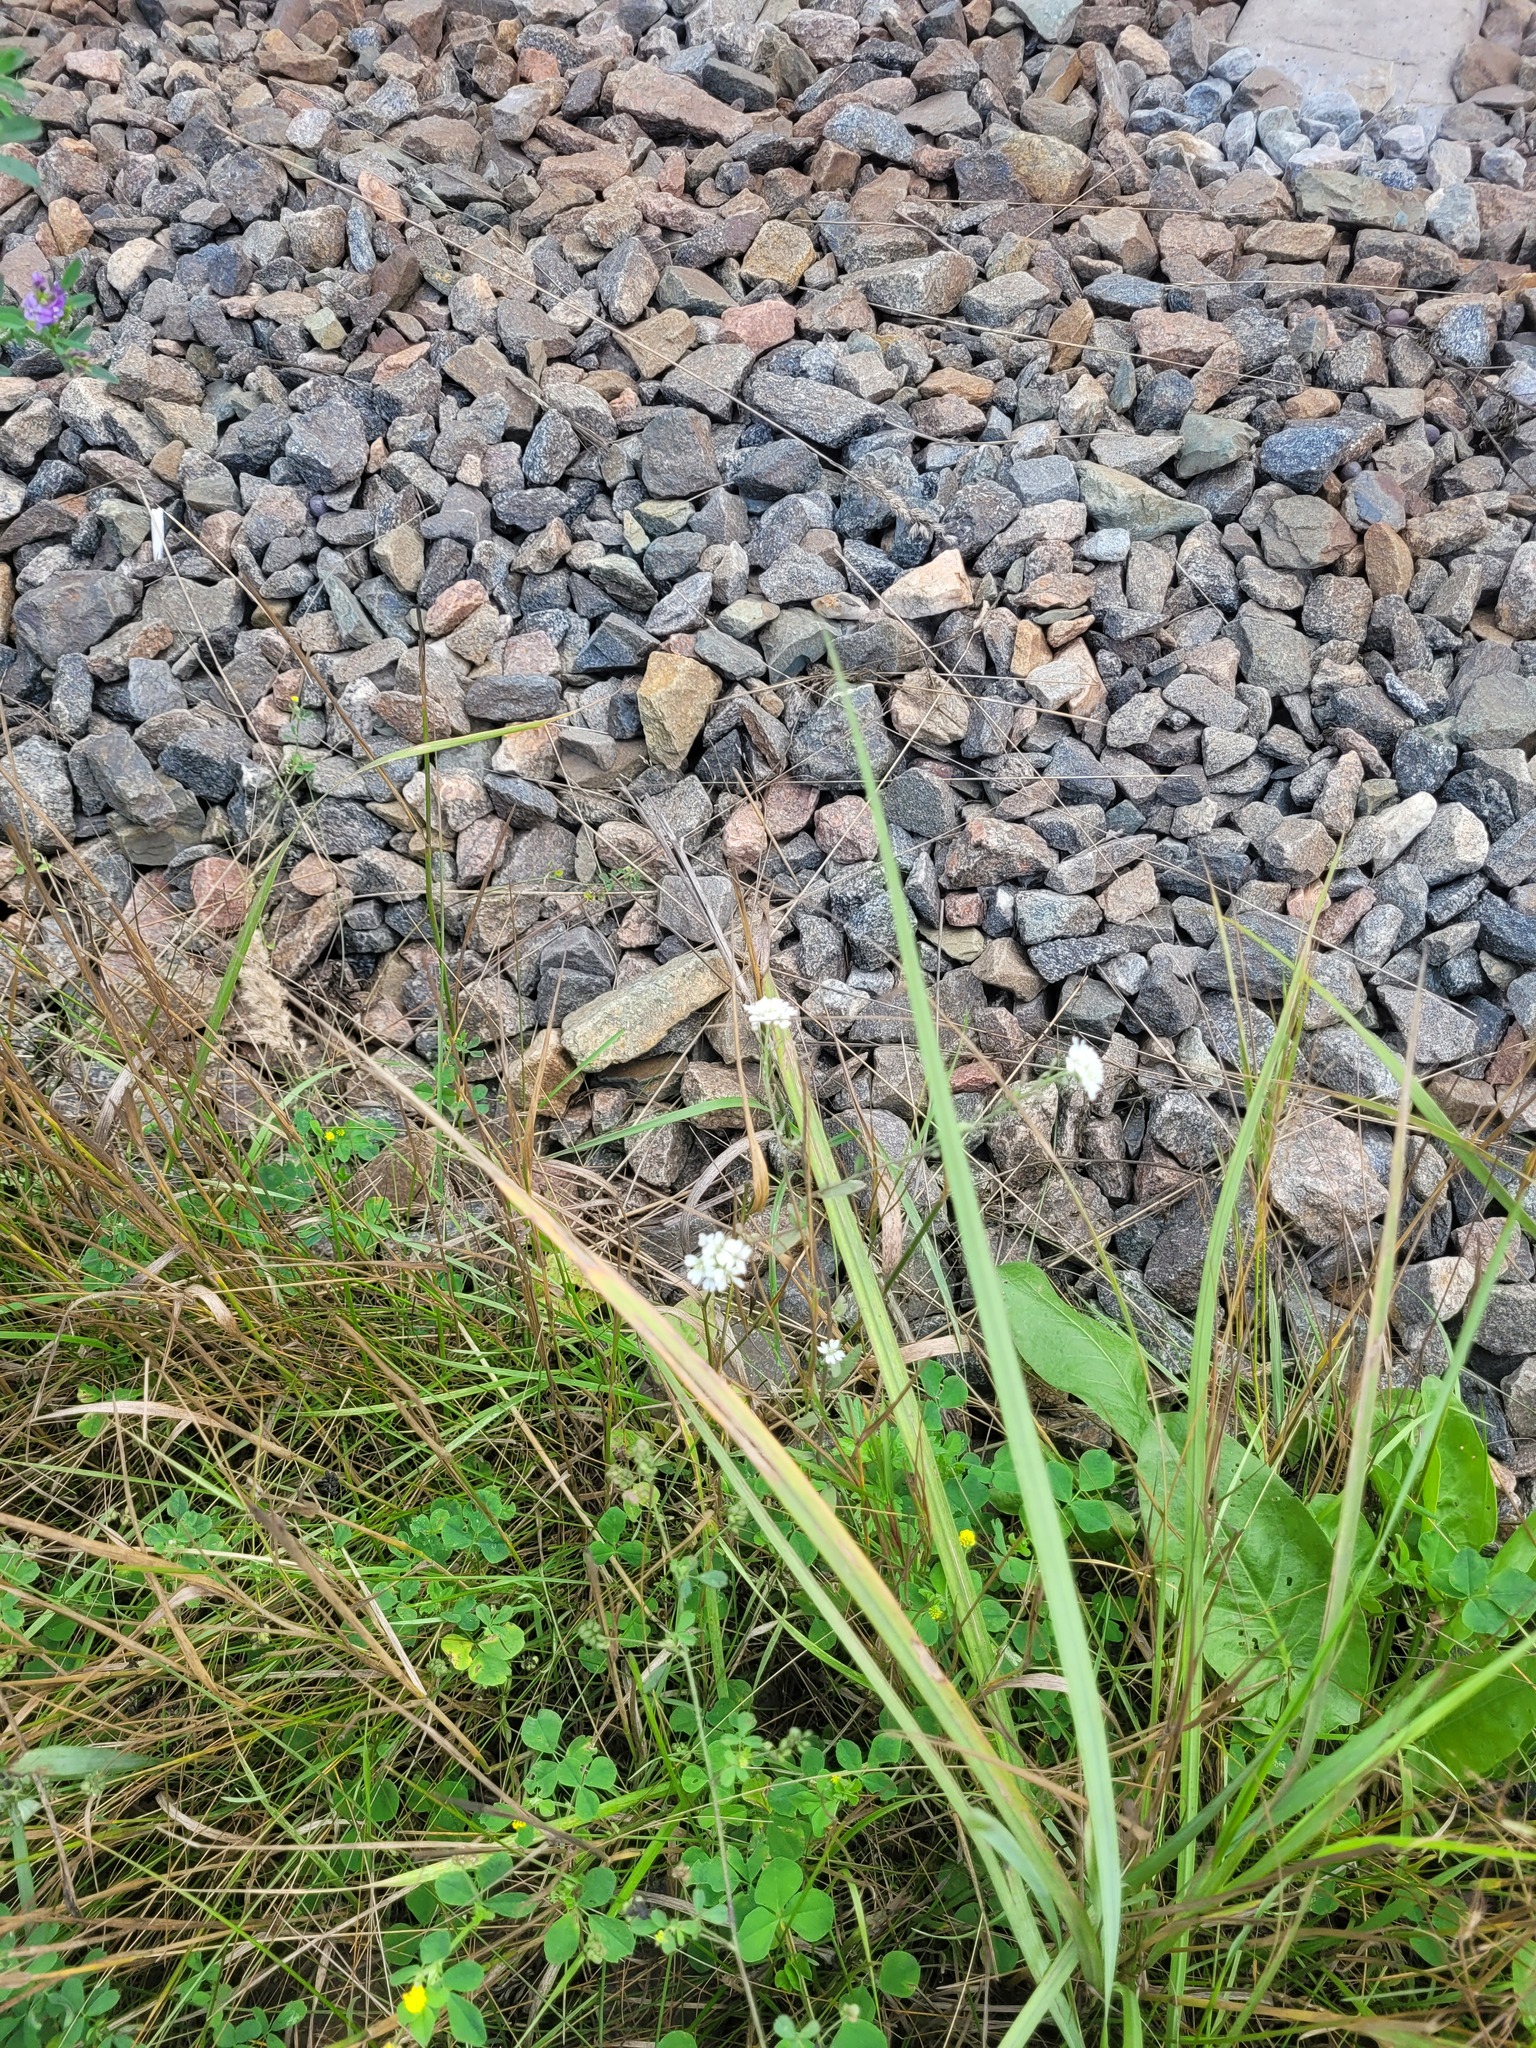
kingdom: Plantae
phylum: Tracheophyta
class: Magnoliopsida
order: Brassicales
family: Brassicaceae
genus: Berteroa
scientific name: Berteroa incana
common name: Hoary alison
